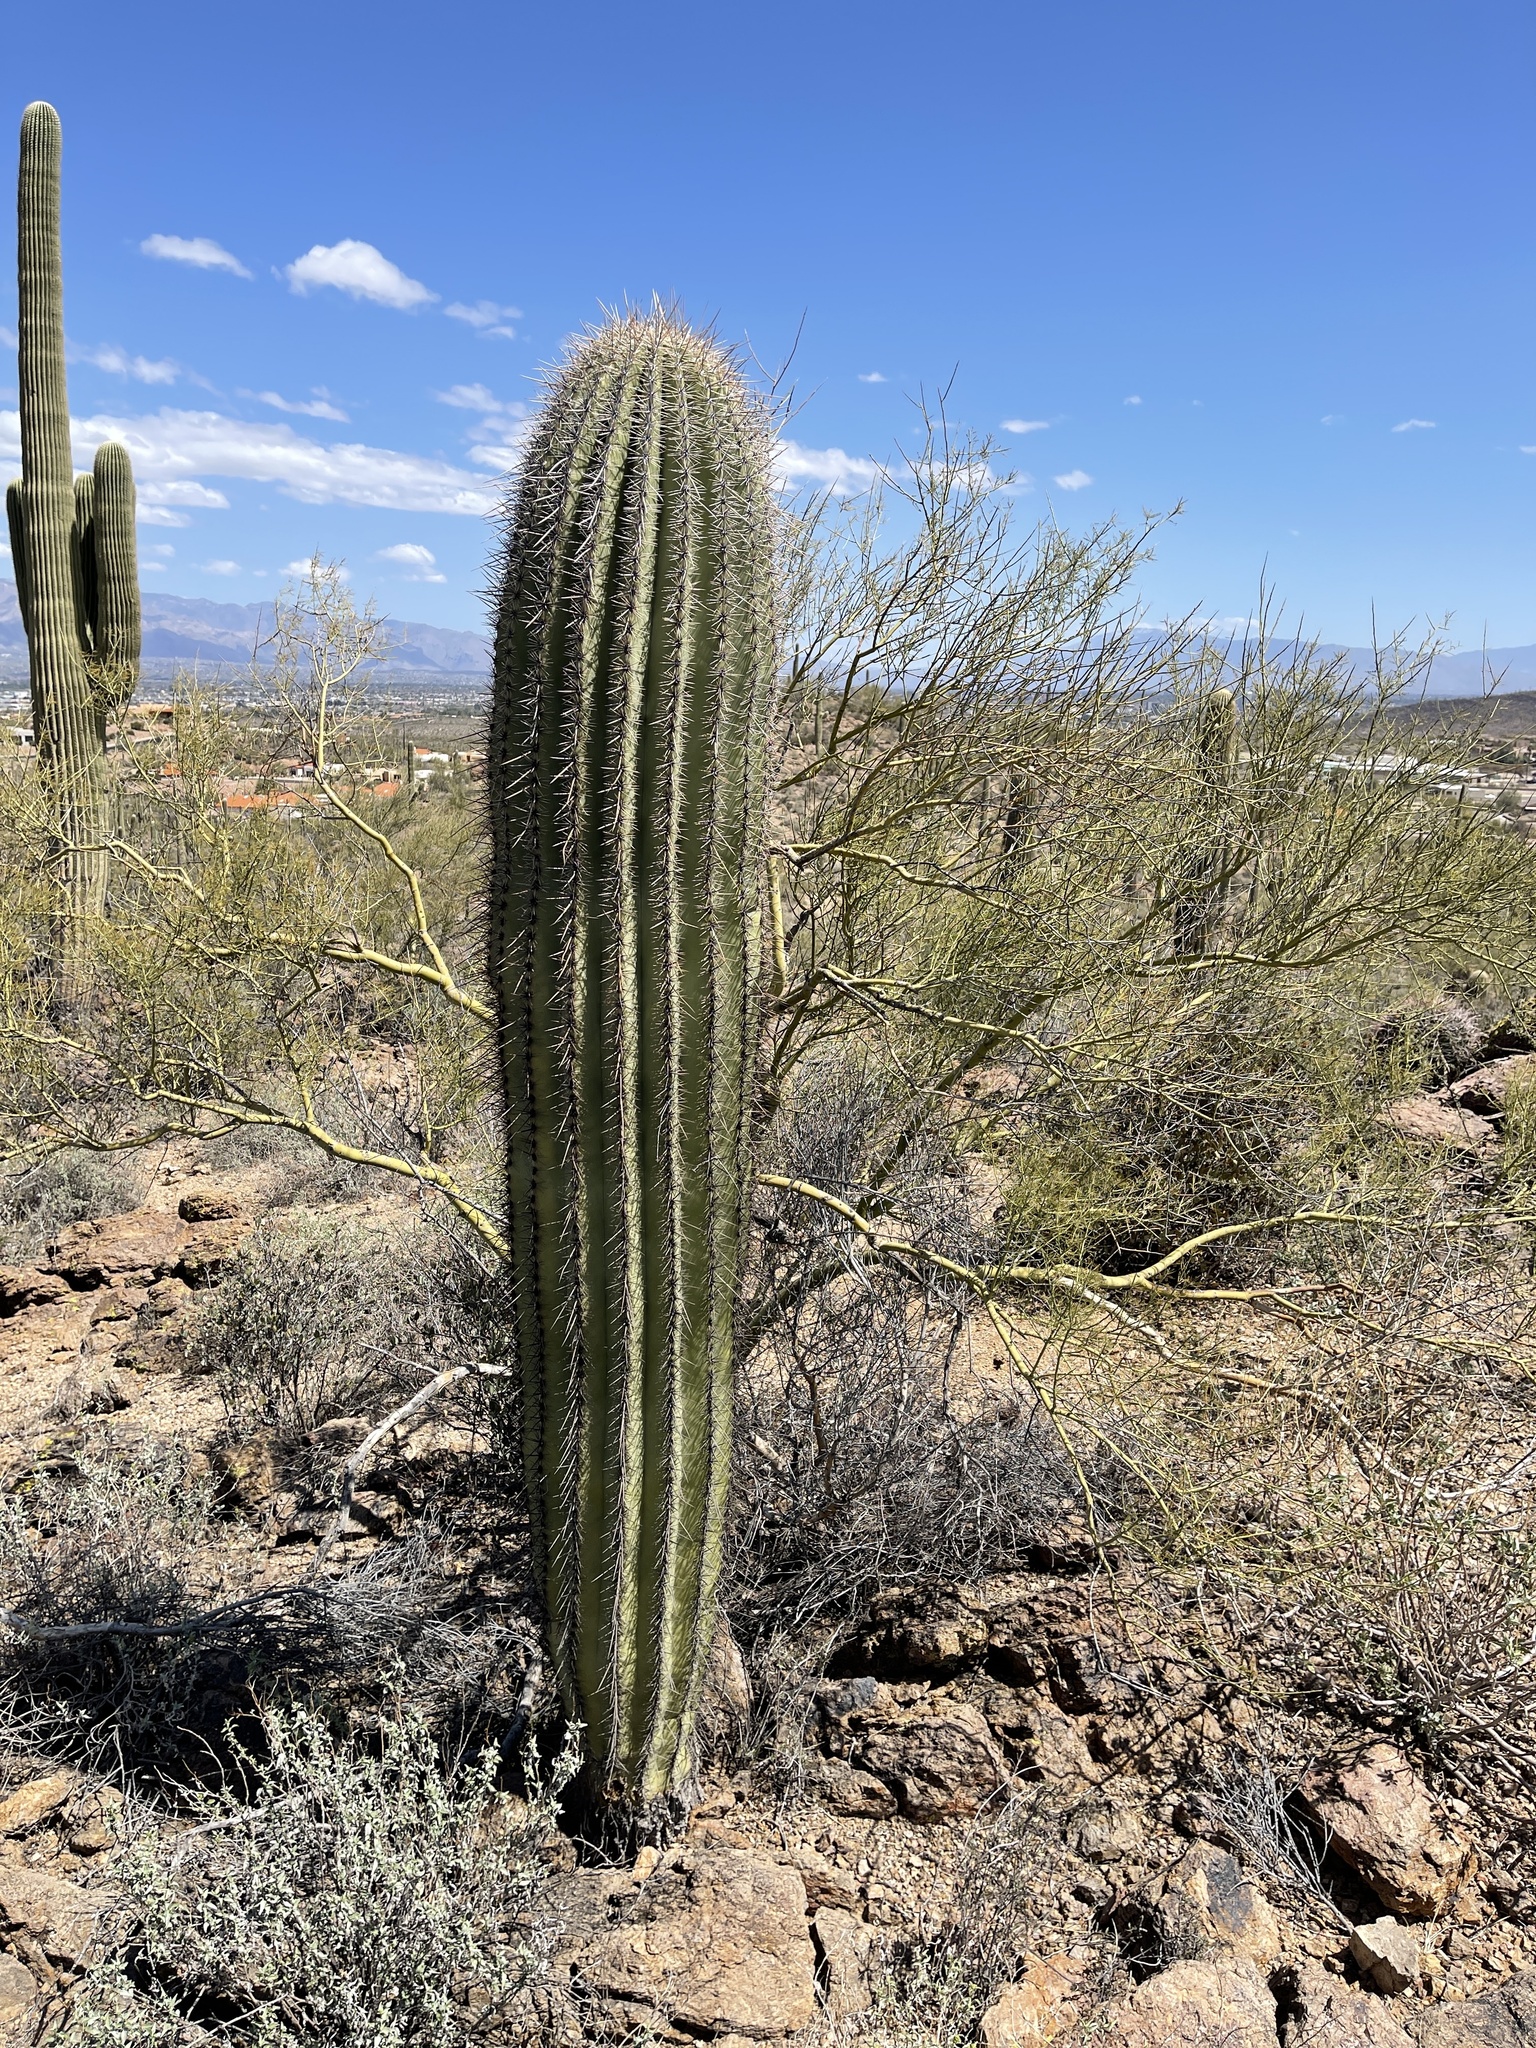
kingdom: Plantae
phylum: Tracheophyta
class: Magnoliopsida
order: Caryophyllales
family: Cactaceae
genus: Carnegiea
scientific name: Carnegiea gigantea
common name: Saguaro
